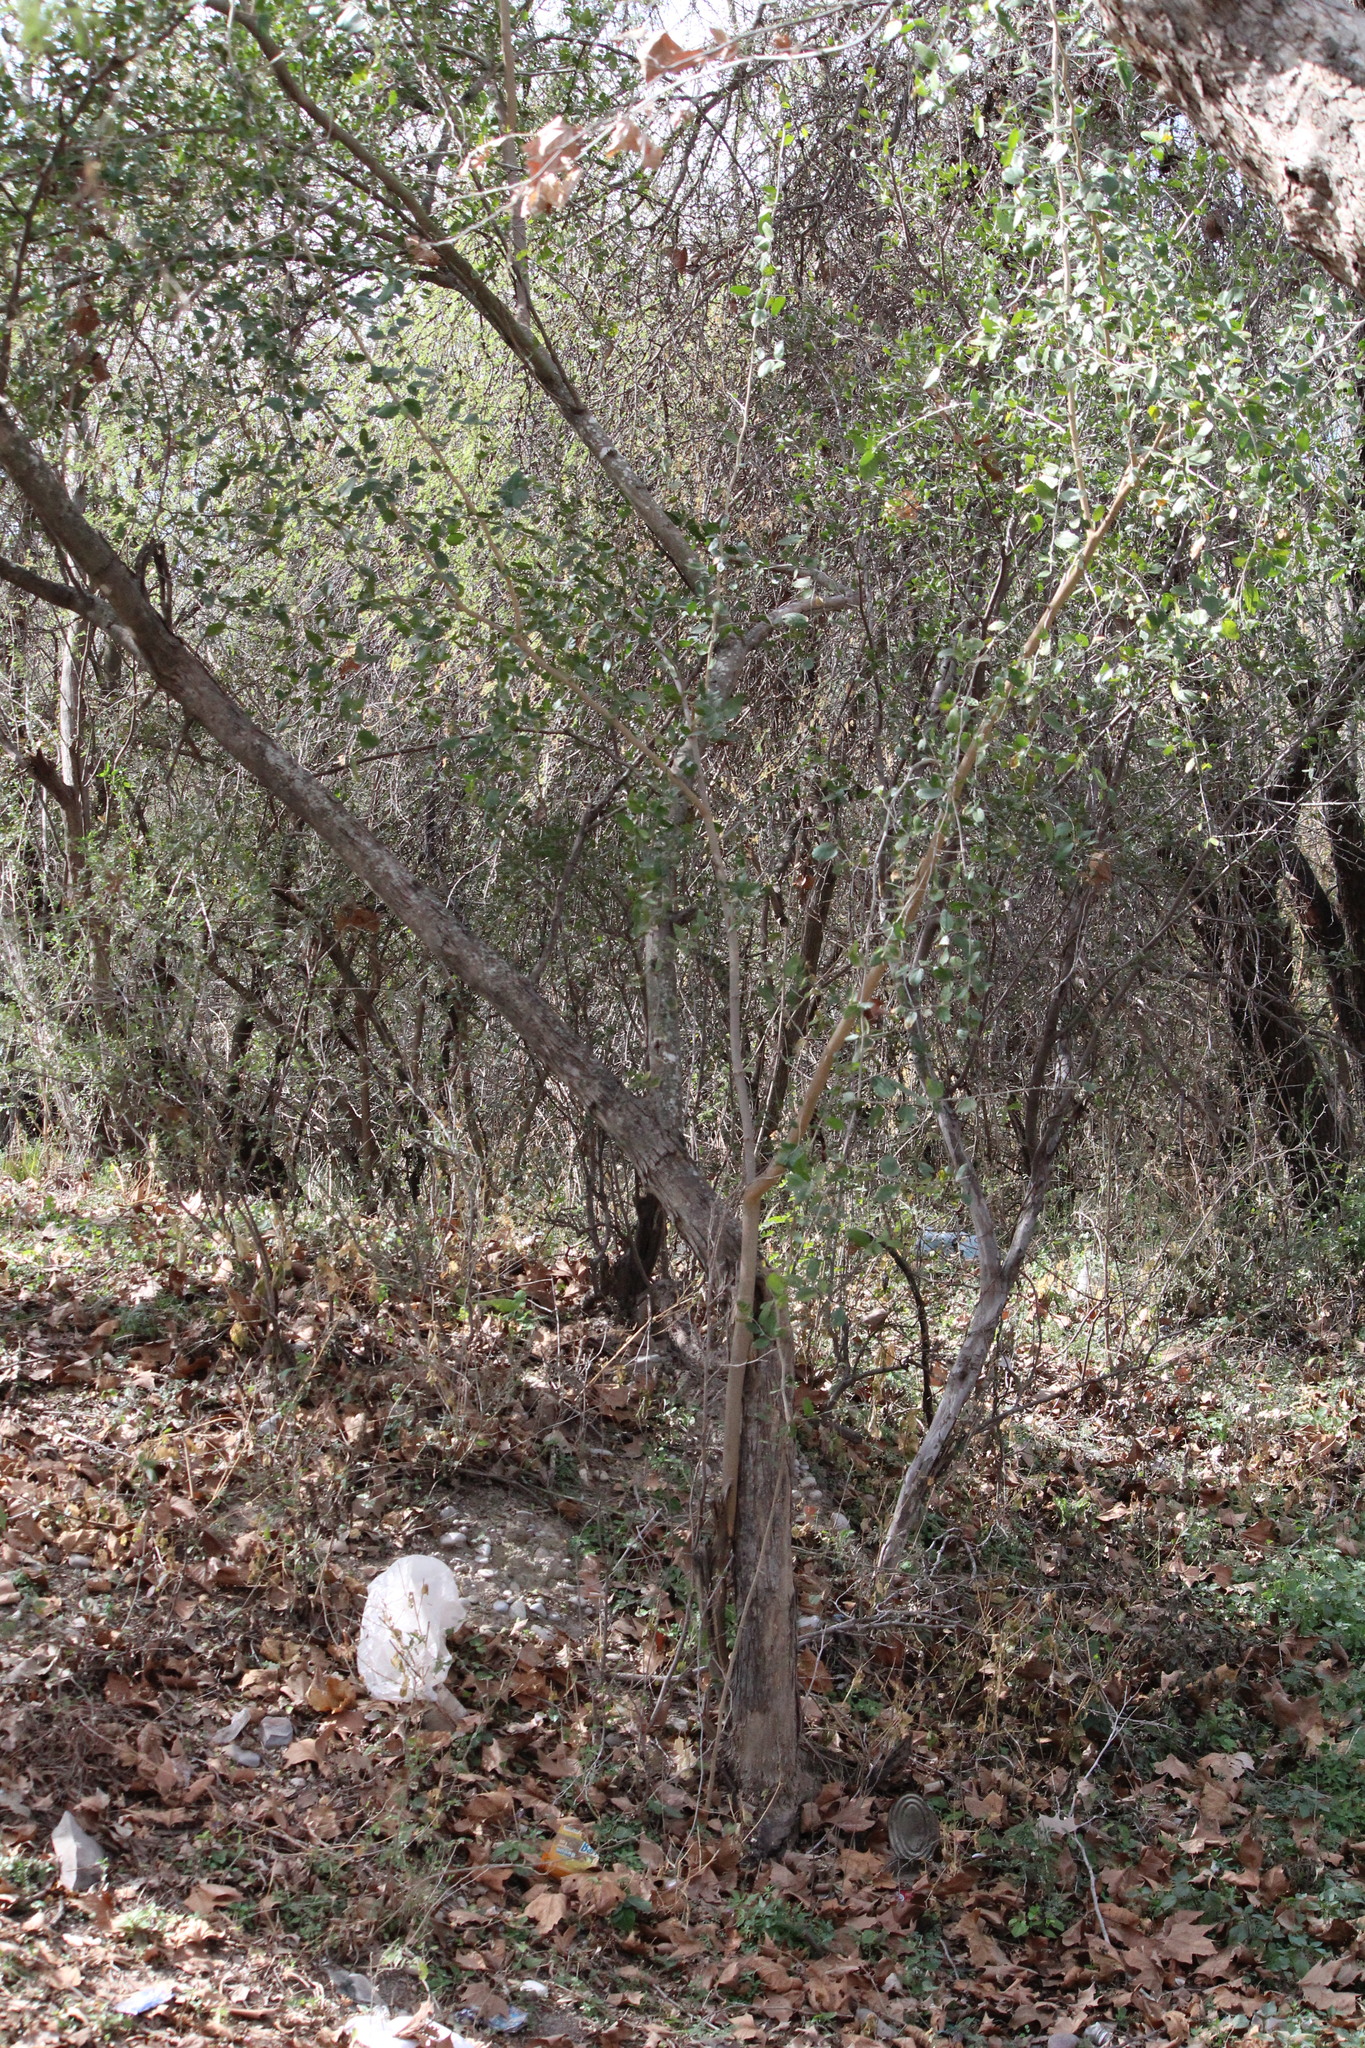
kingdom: Plantae
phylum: Tracheophyta
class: Magnoliopsida
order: Rosales
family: Cannabaceae
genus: Celtis
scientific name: Celtis pallida
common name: Desert hackberry
